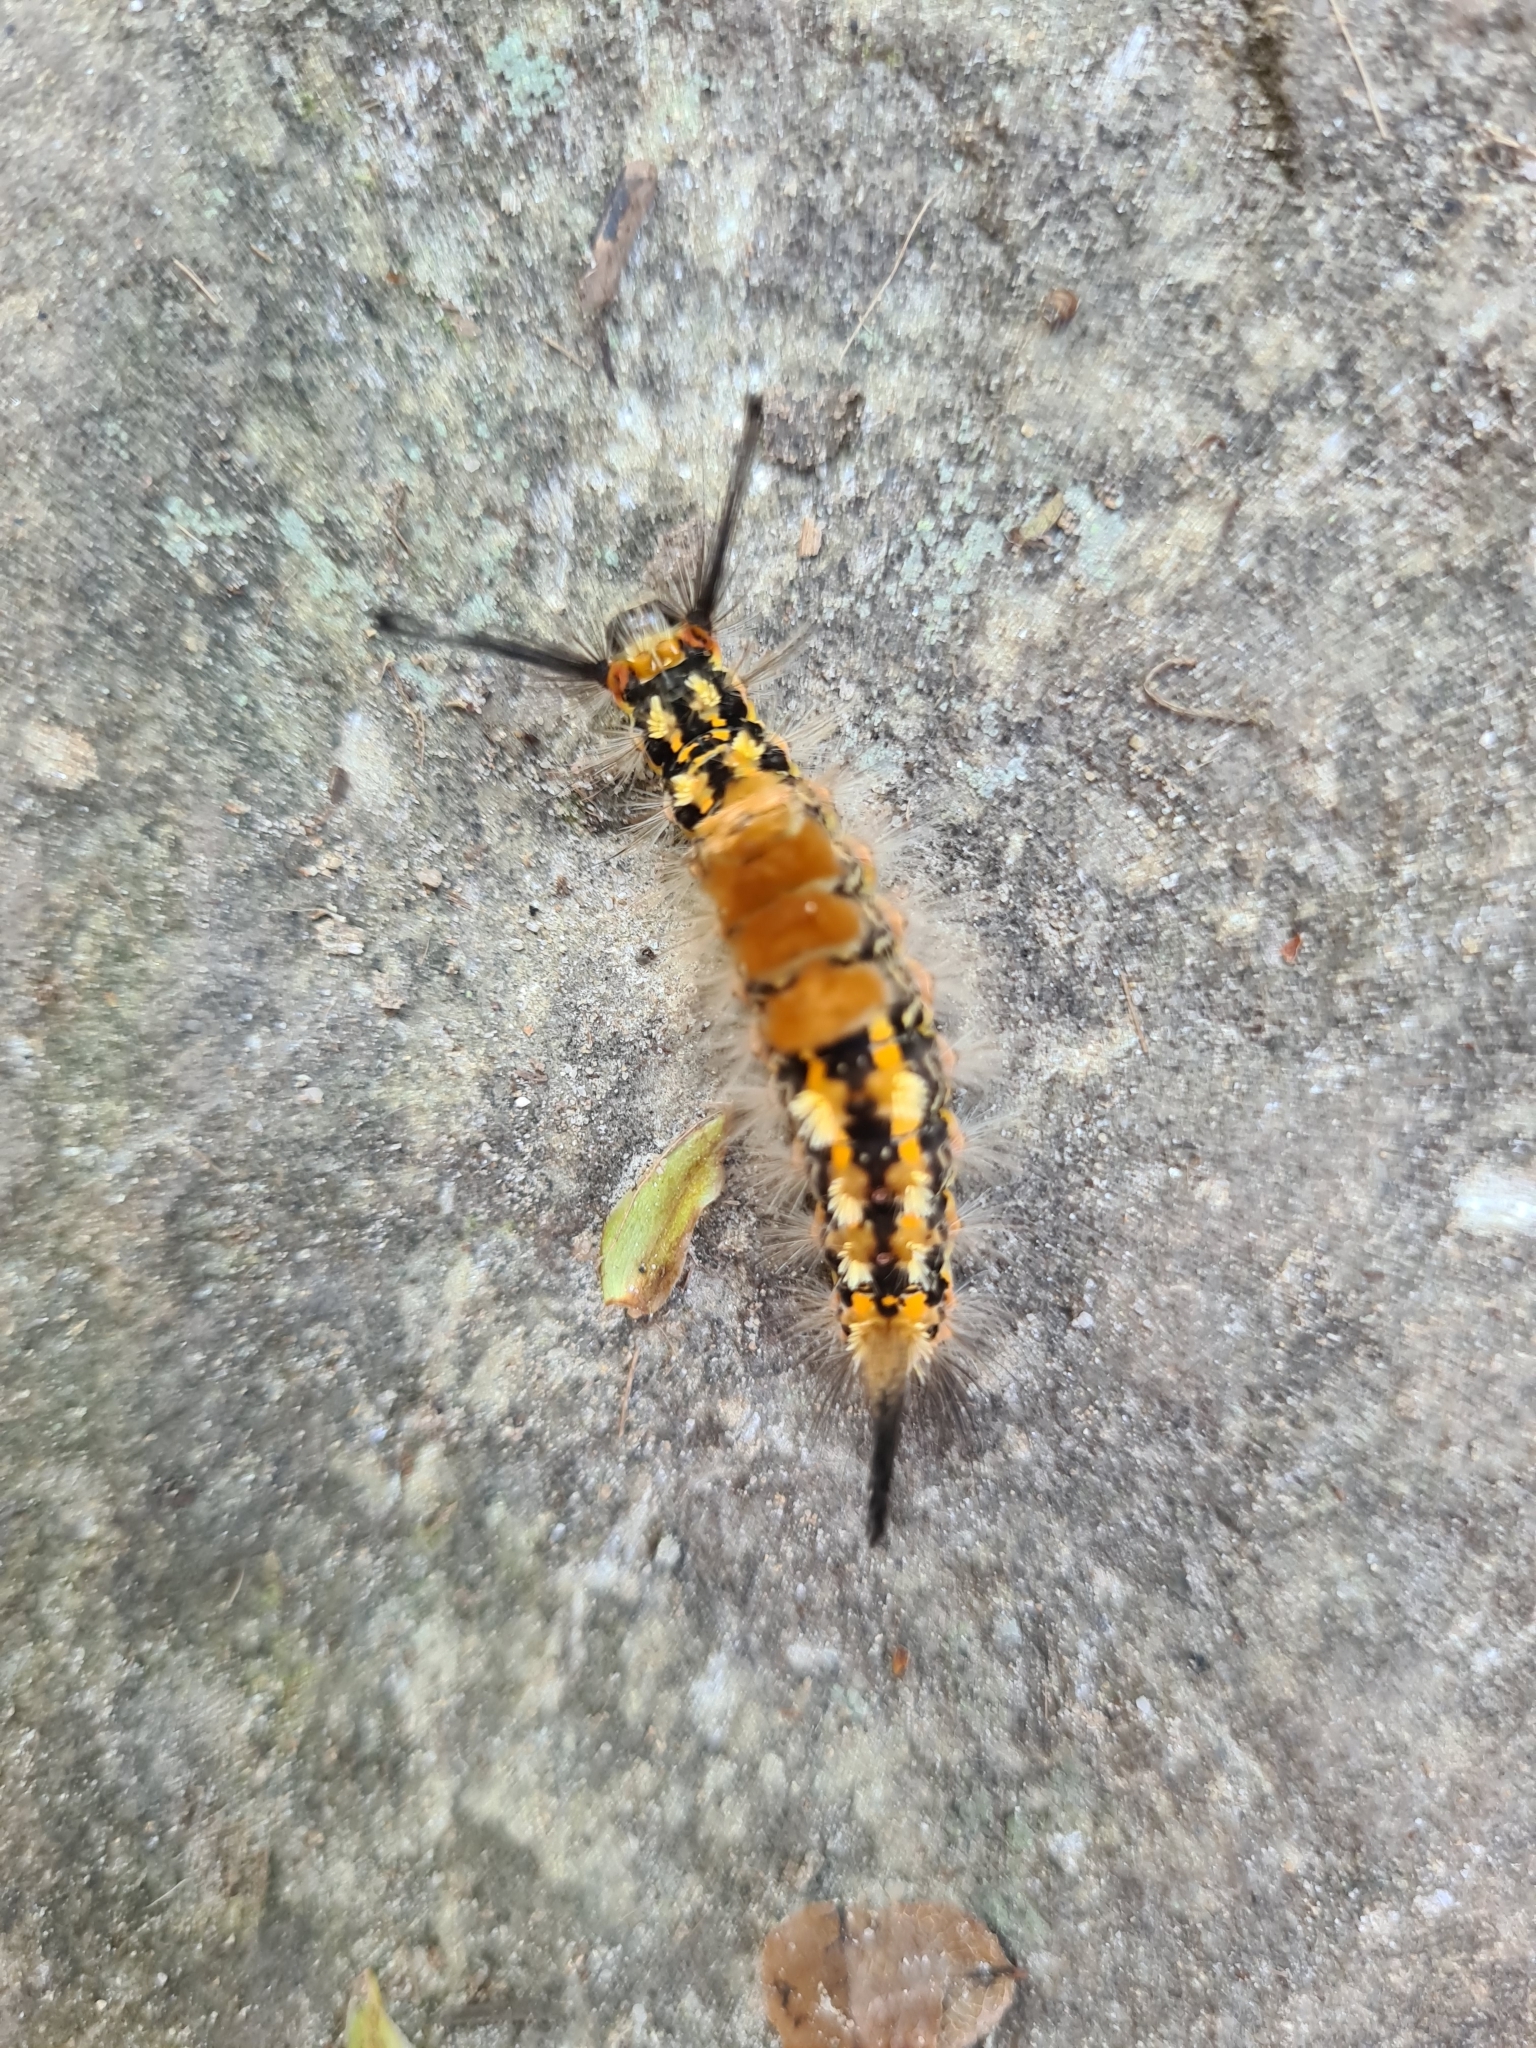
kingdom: Animalia
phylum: Arthropoda
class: Insecta
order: Lepidoptera
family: Erebidae
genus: Orgyia
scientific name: Orgyia recens
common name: Scarce vapourer
